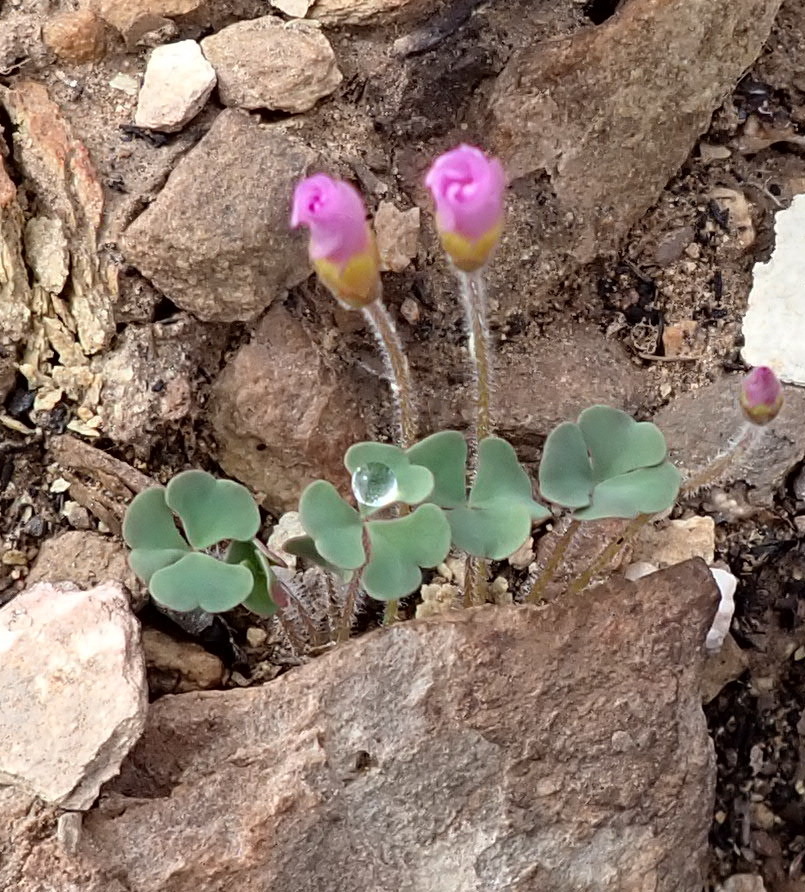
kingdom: Plantae
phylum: Tracheophyta
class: Magnoliopsida
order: Oxalidales
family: Oxalidaceae
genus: Oxalis
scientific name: Oxalis punctata
